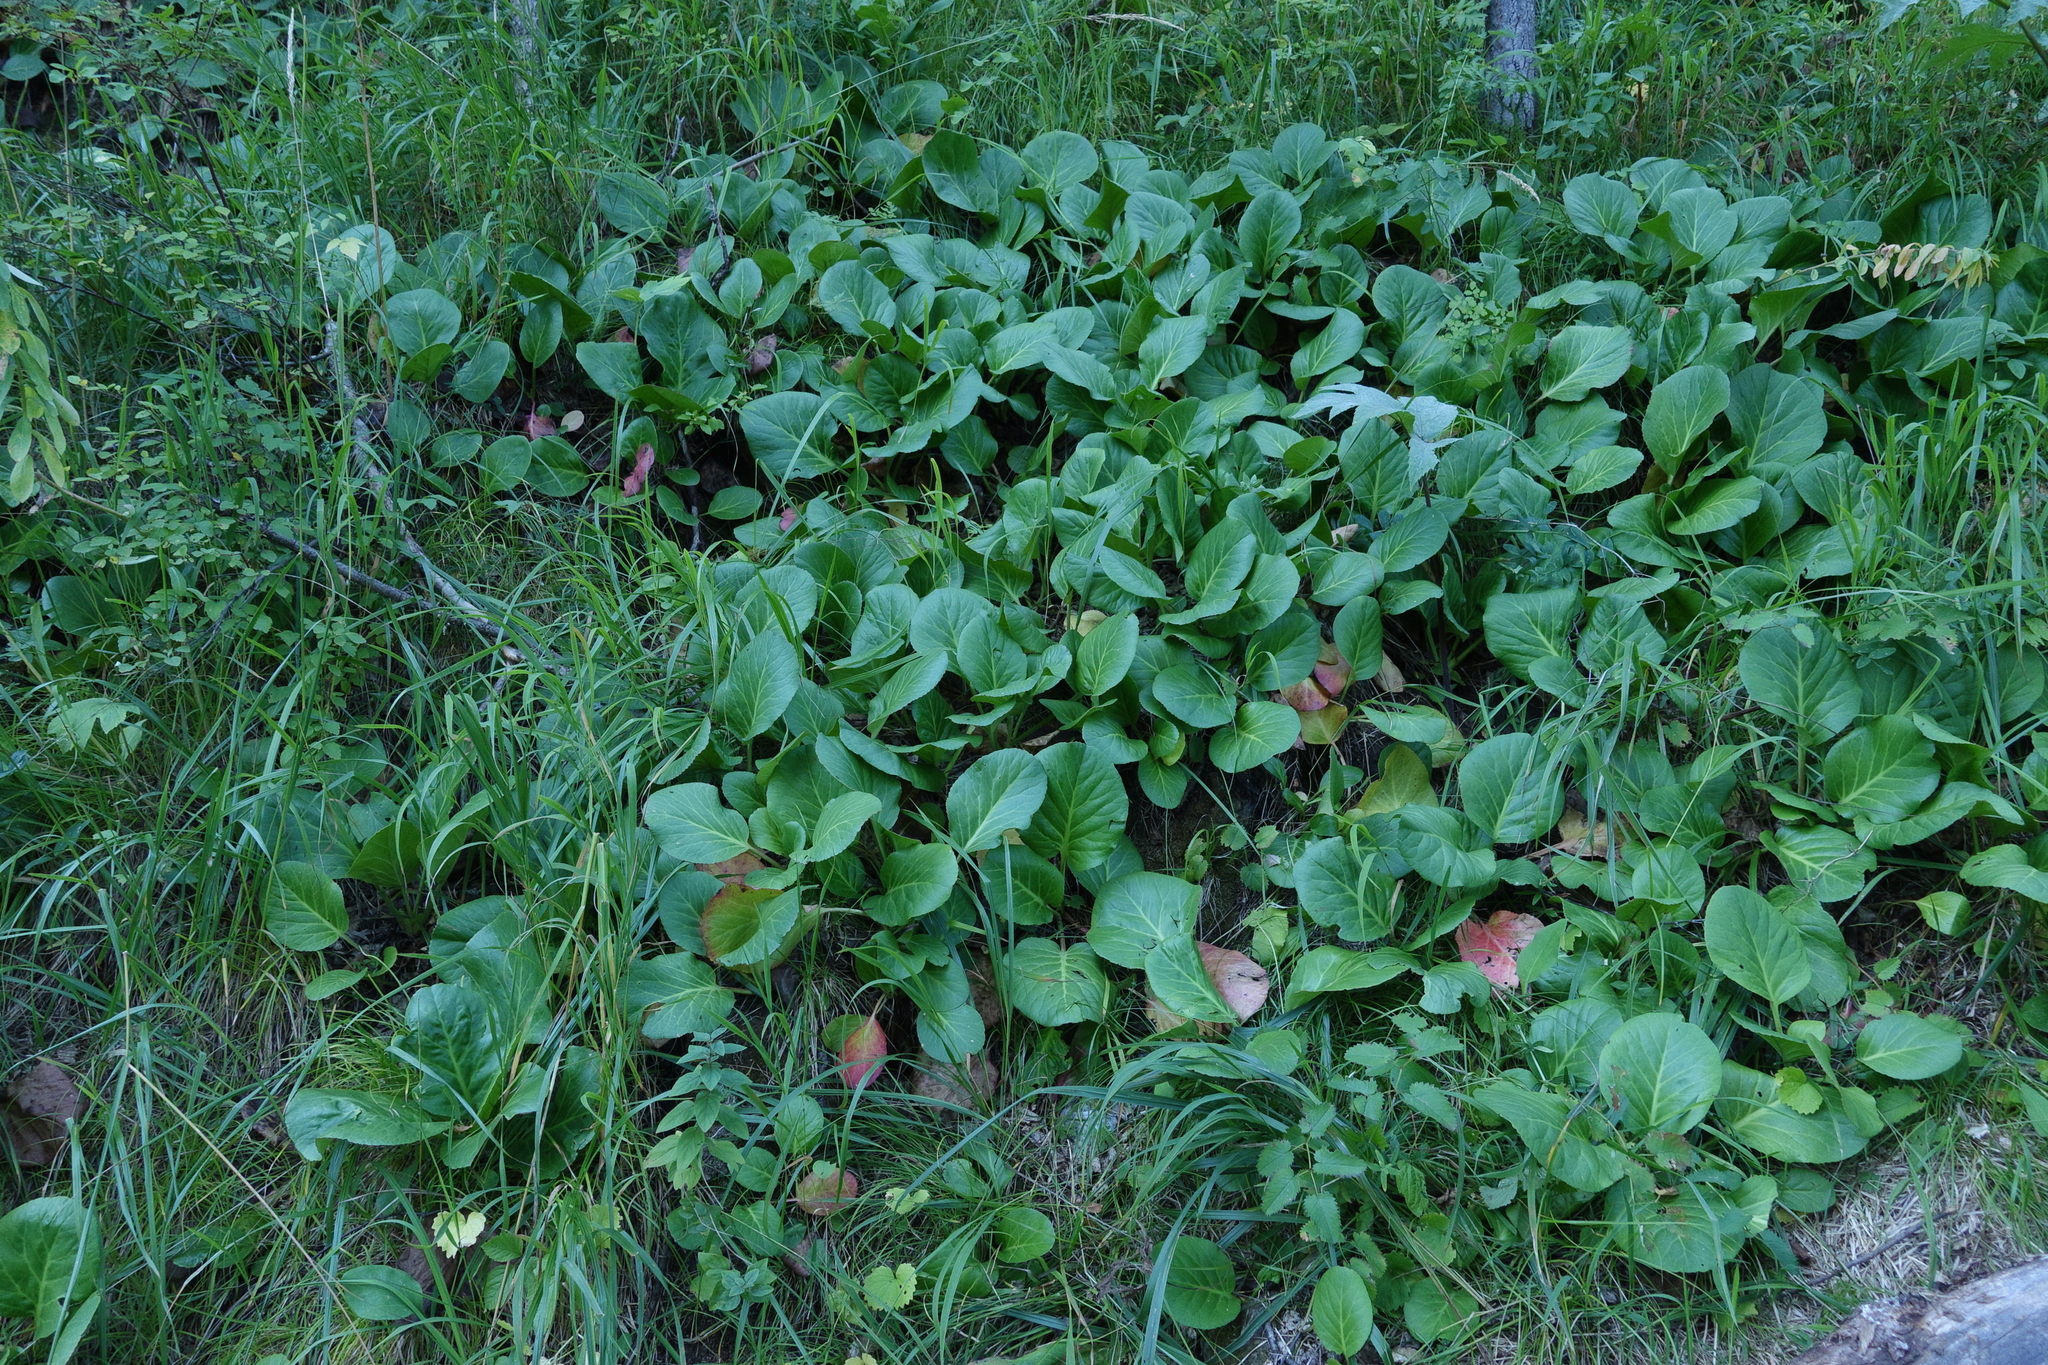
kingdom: Plantae
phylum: Tracheophyta
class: Magnoliopsida
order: Saxifragales
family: Saxifragaceae
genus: Bergenia
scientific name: Bergenia crassifolia
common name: Elephant-ears
